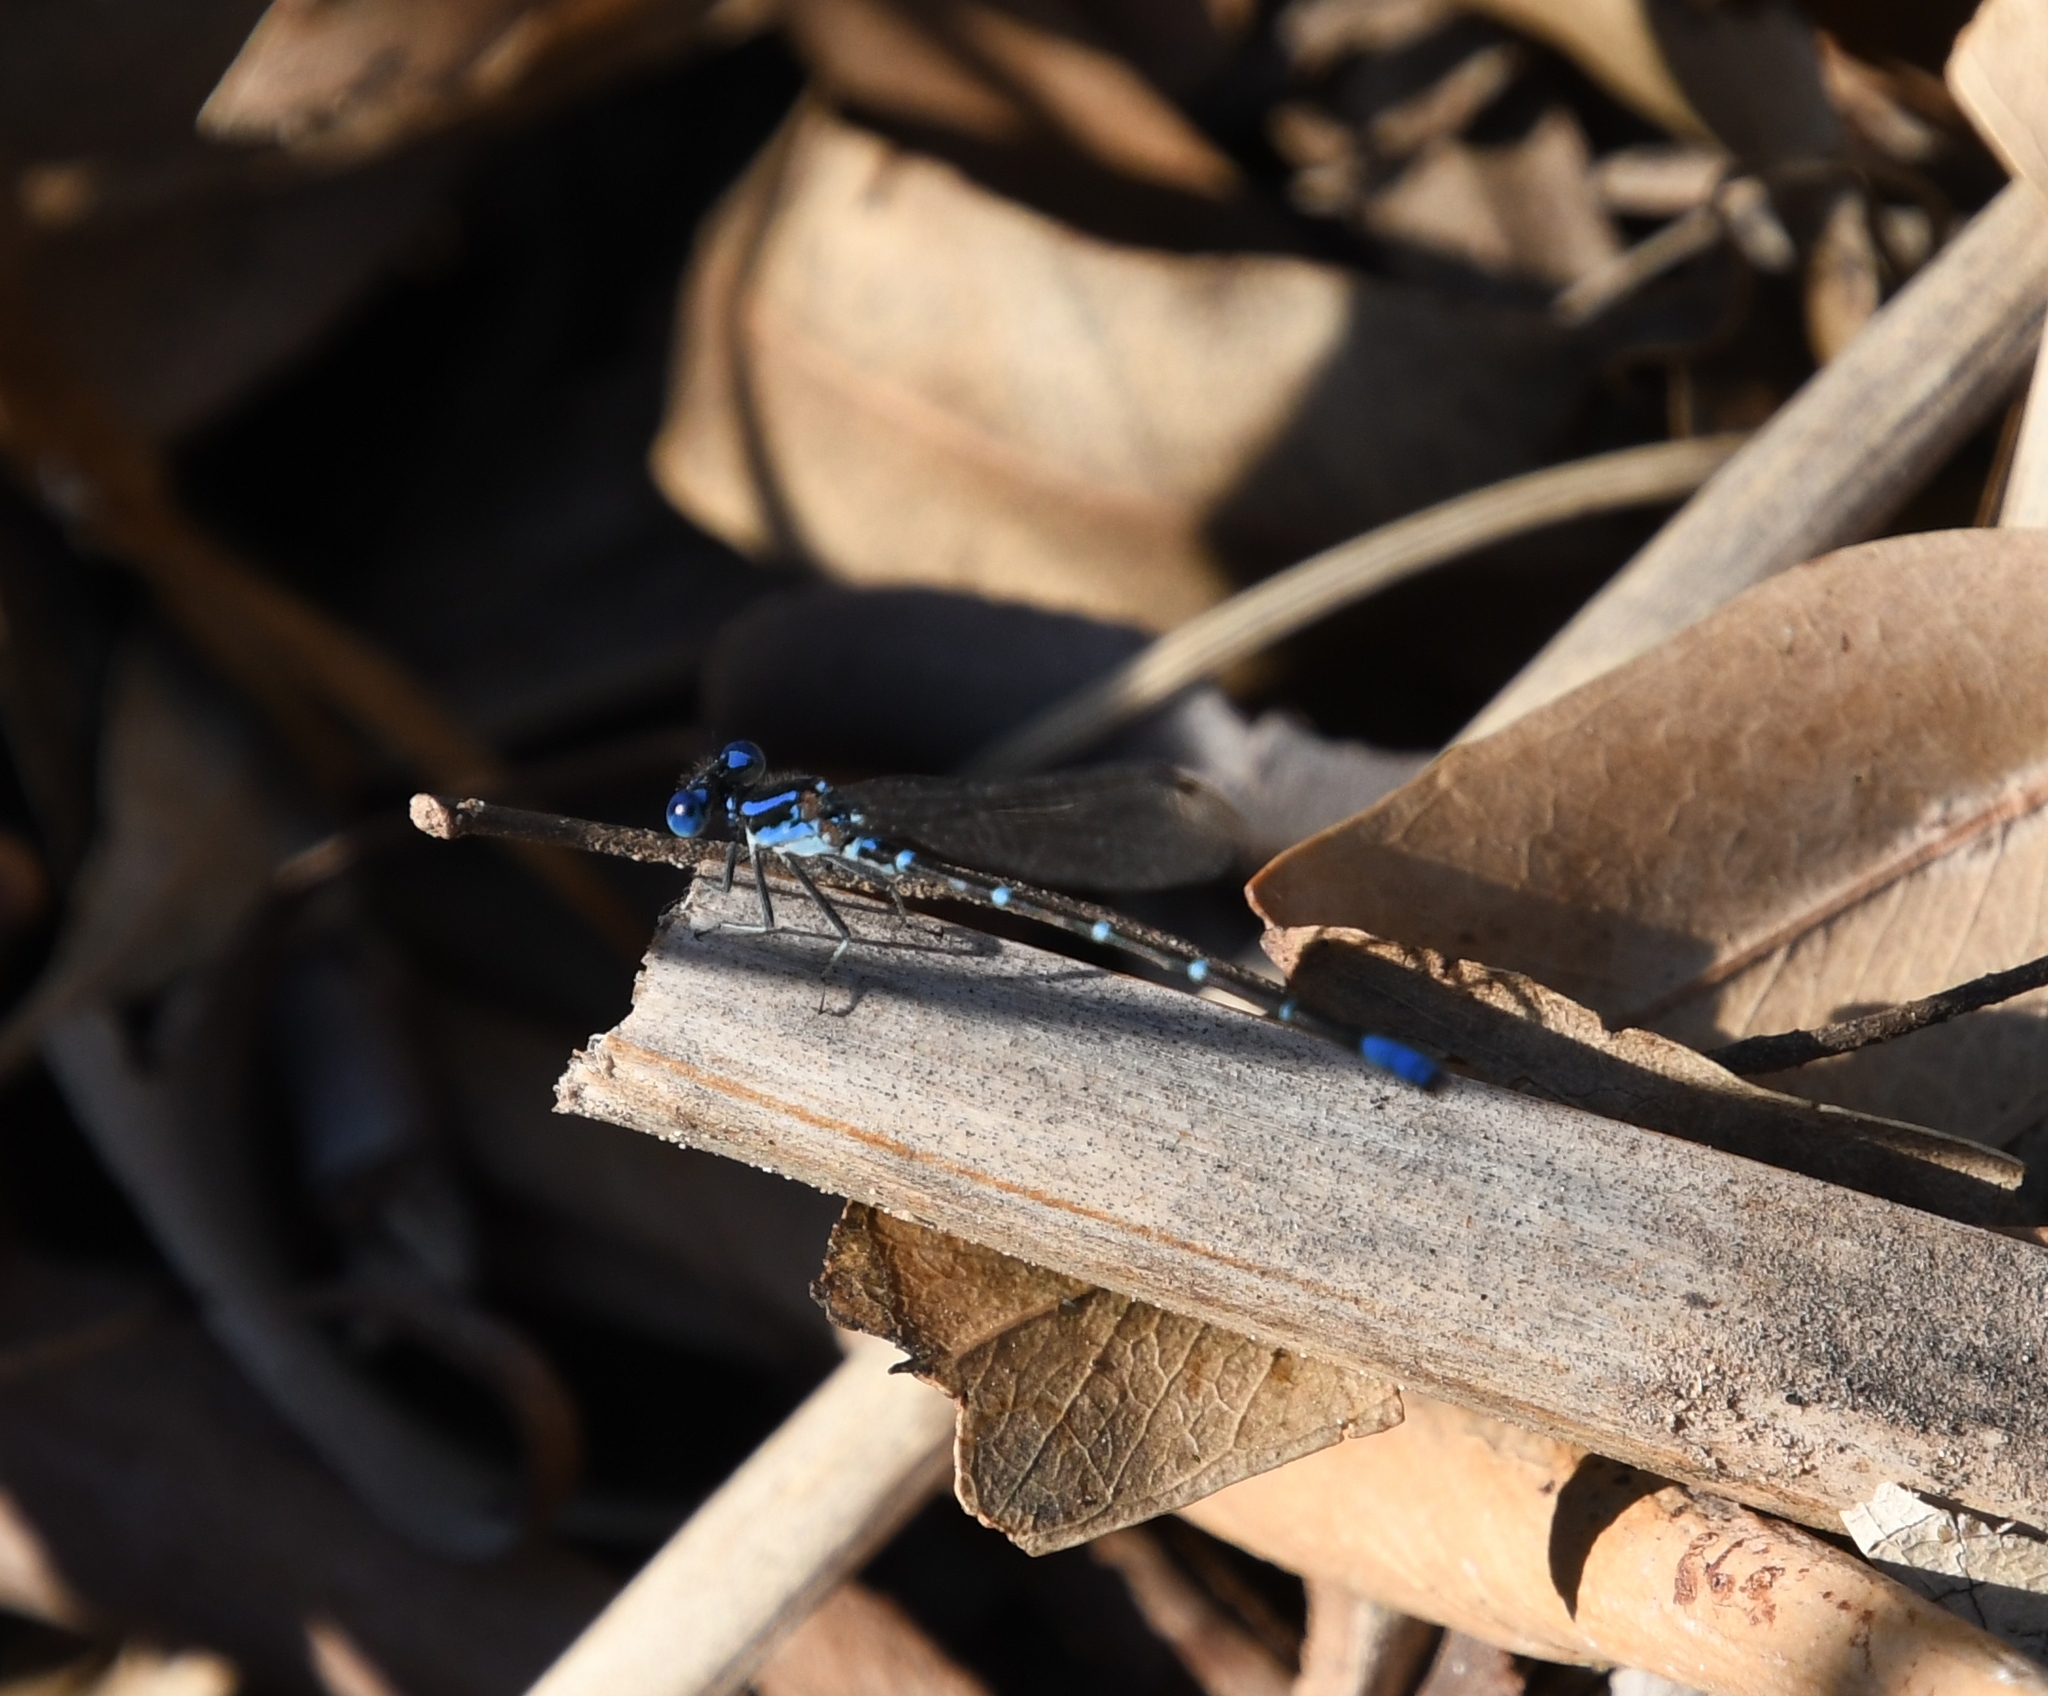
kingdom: Animalia
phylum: Arthropoda
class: Insecta
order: Odonata
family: Coenagrionidae
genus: Argia
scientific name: Argia sedula
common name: Blue-ringed dancer
